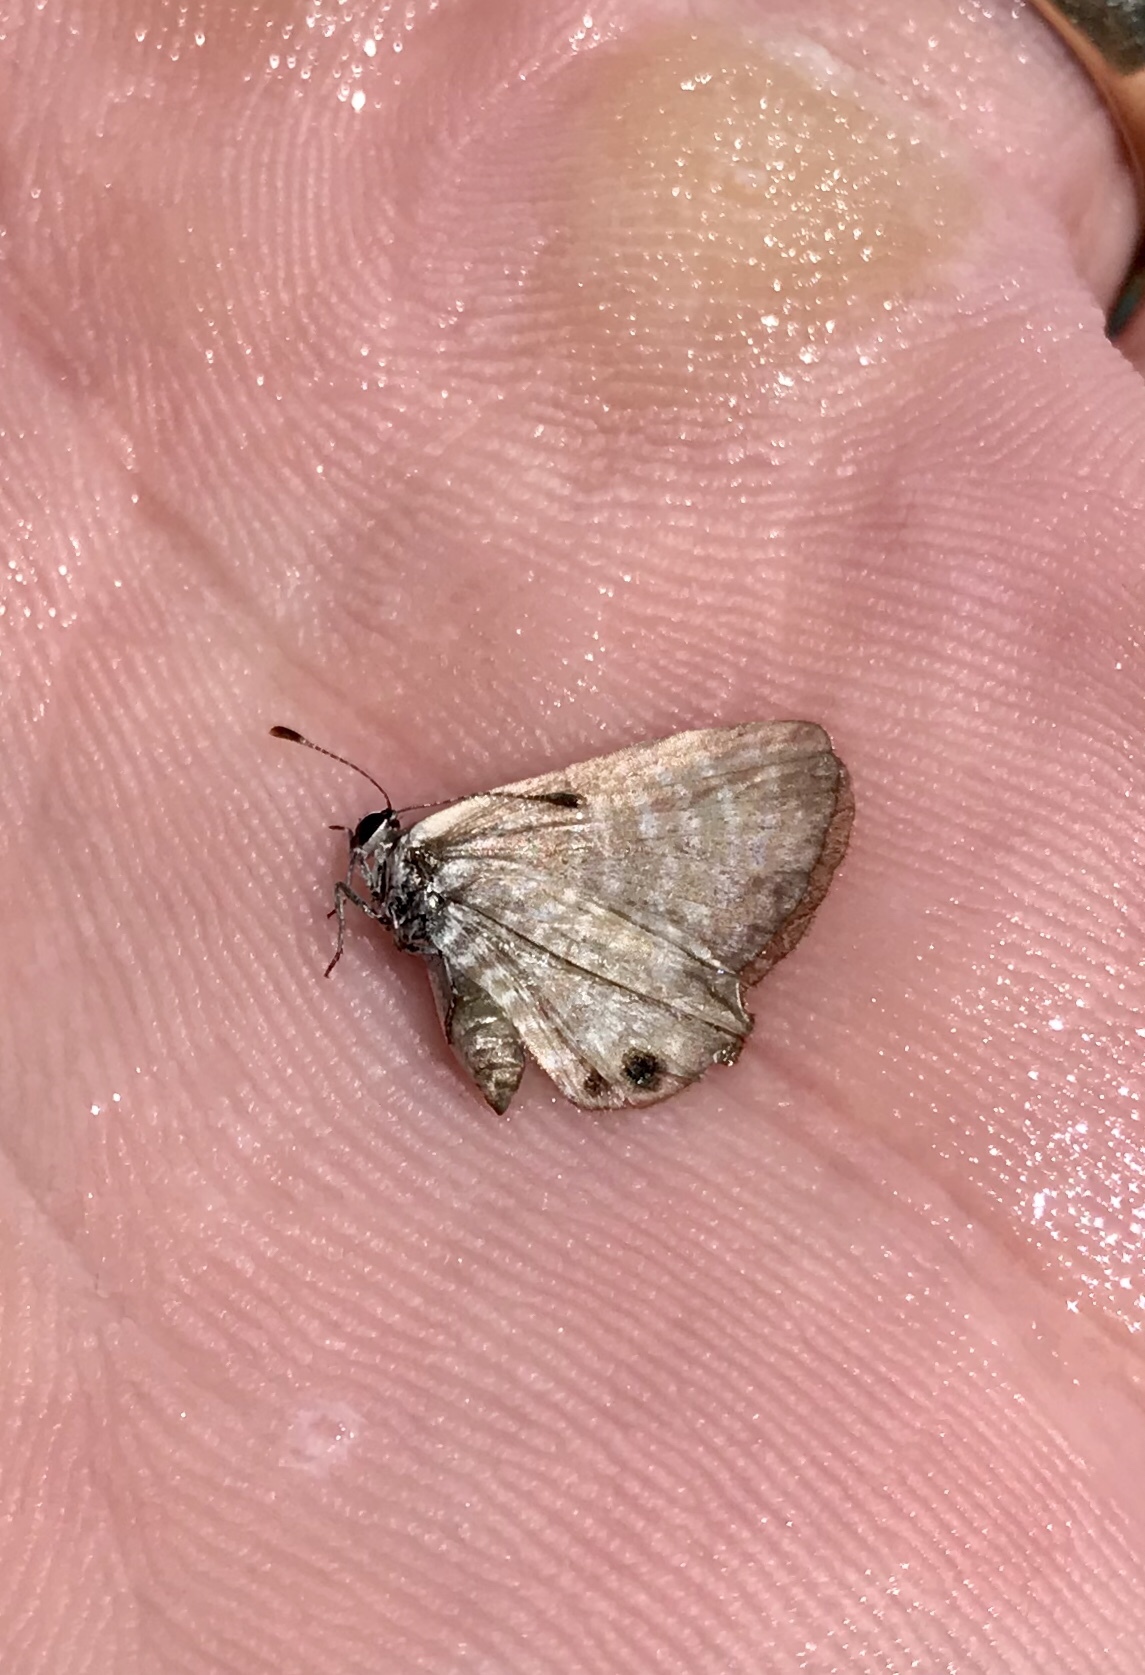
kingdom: Animalia
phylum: Arthropoda
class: Insecta
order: Lepidoptera
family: Lycaenidae
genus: Leptotes
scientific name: Leptotes marina
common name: Marine blue
